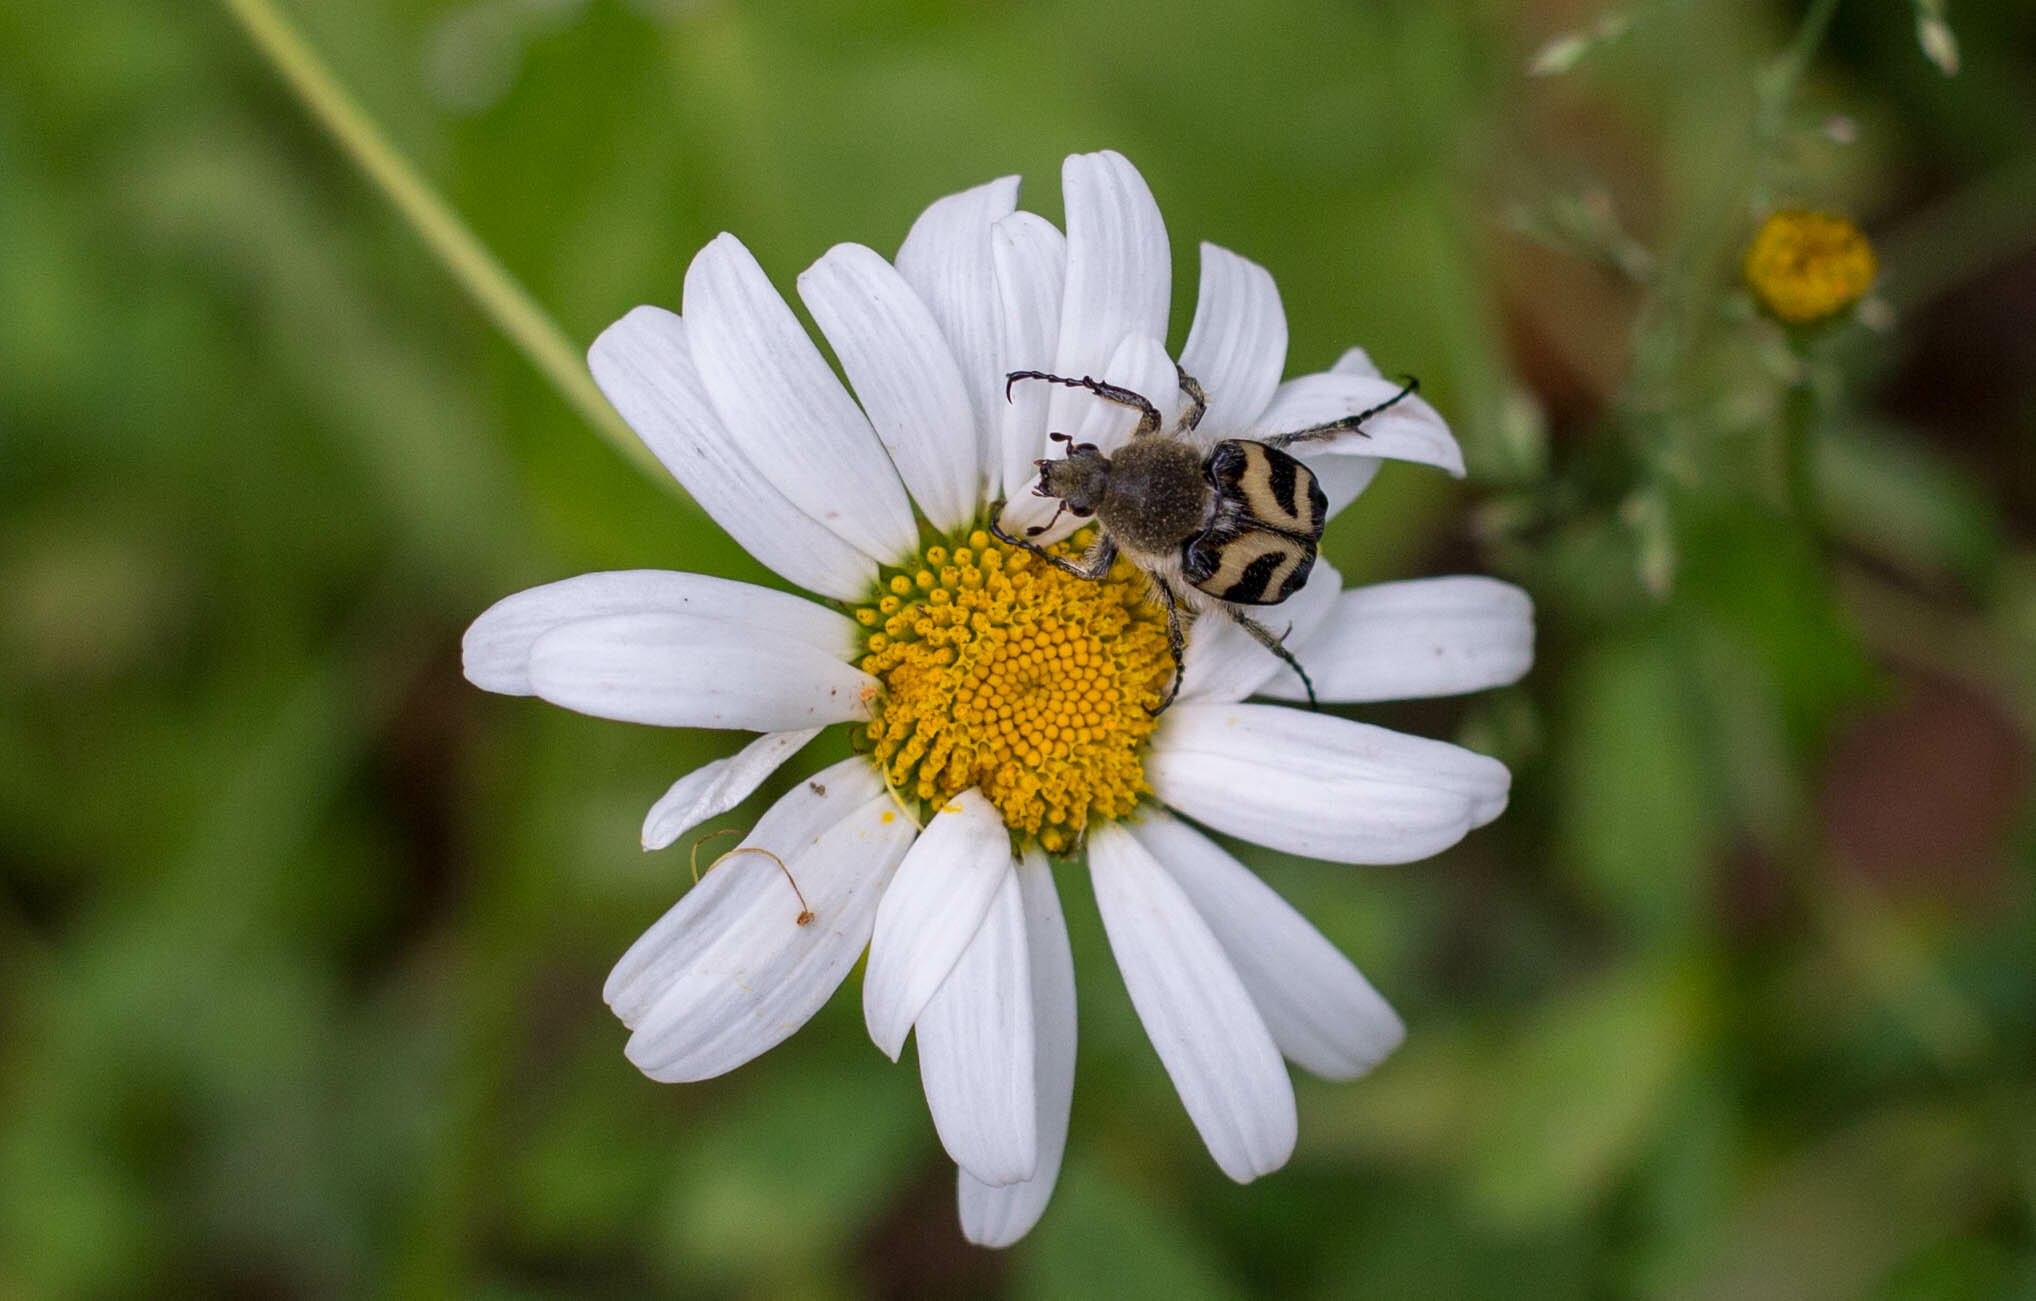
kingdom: Animalia
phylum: Arthropoda
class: Insecta
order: Coleoptera
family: Scarabaeidae
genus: Trichius
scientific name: Trichius fasciatus
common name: Bee beetle
